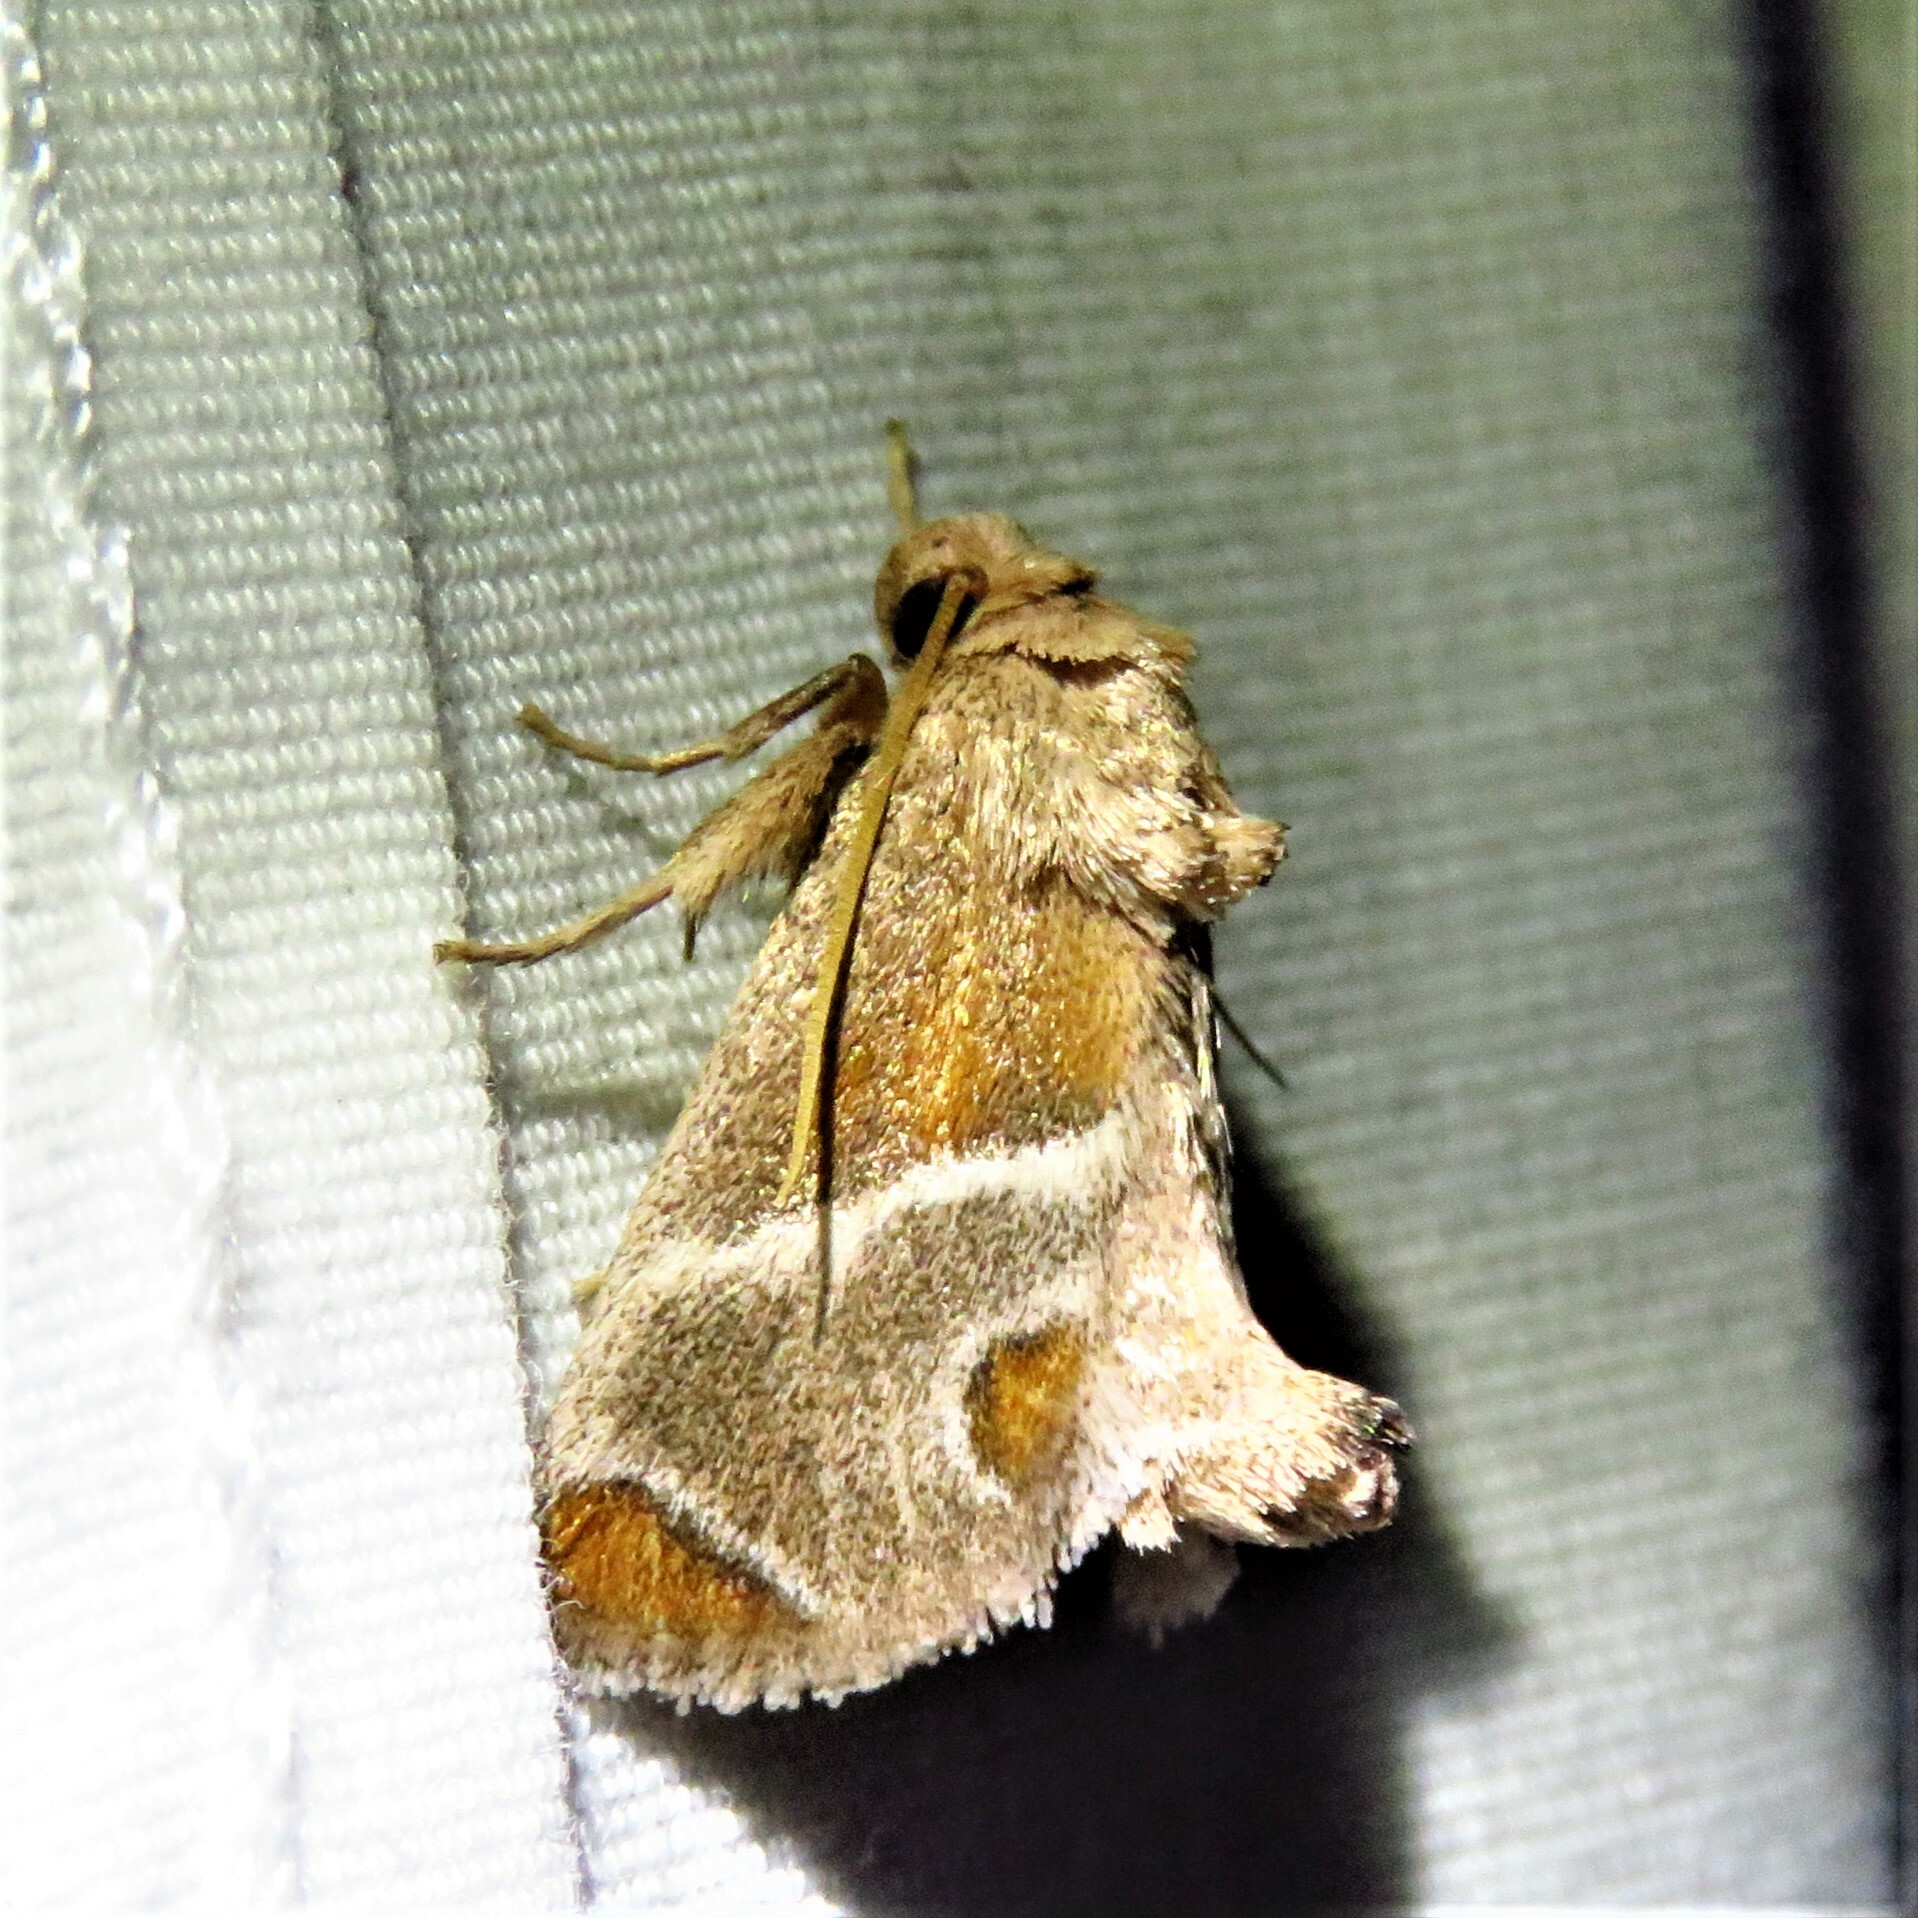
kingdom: Animalia
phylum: Arthropoda
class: Insecta
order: Lepidoptera
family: Limacodidae
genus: Apoda
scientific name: Apoda biguttata
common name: Shagreened slug moth
